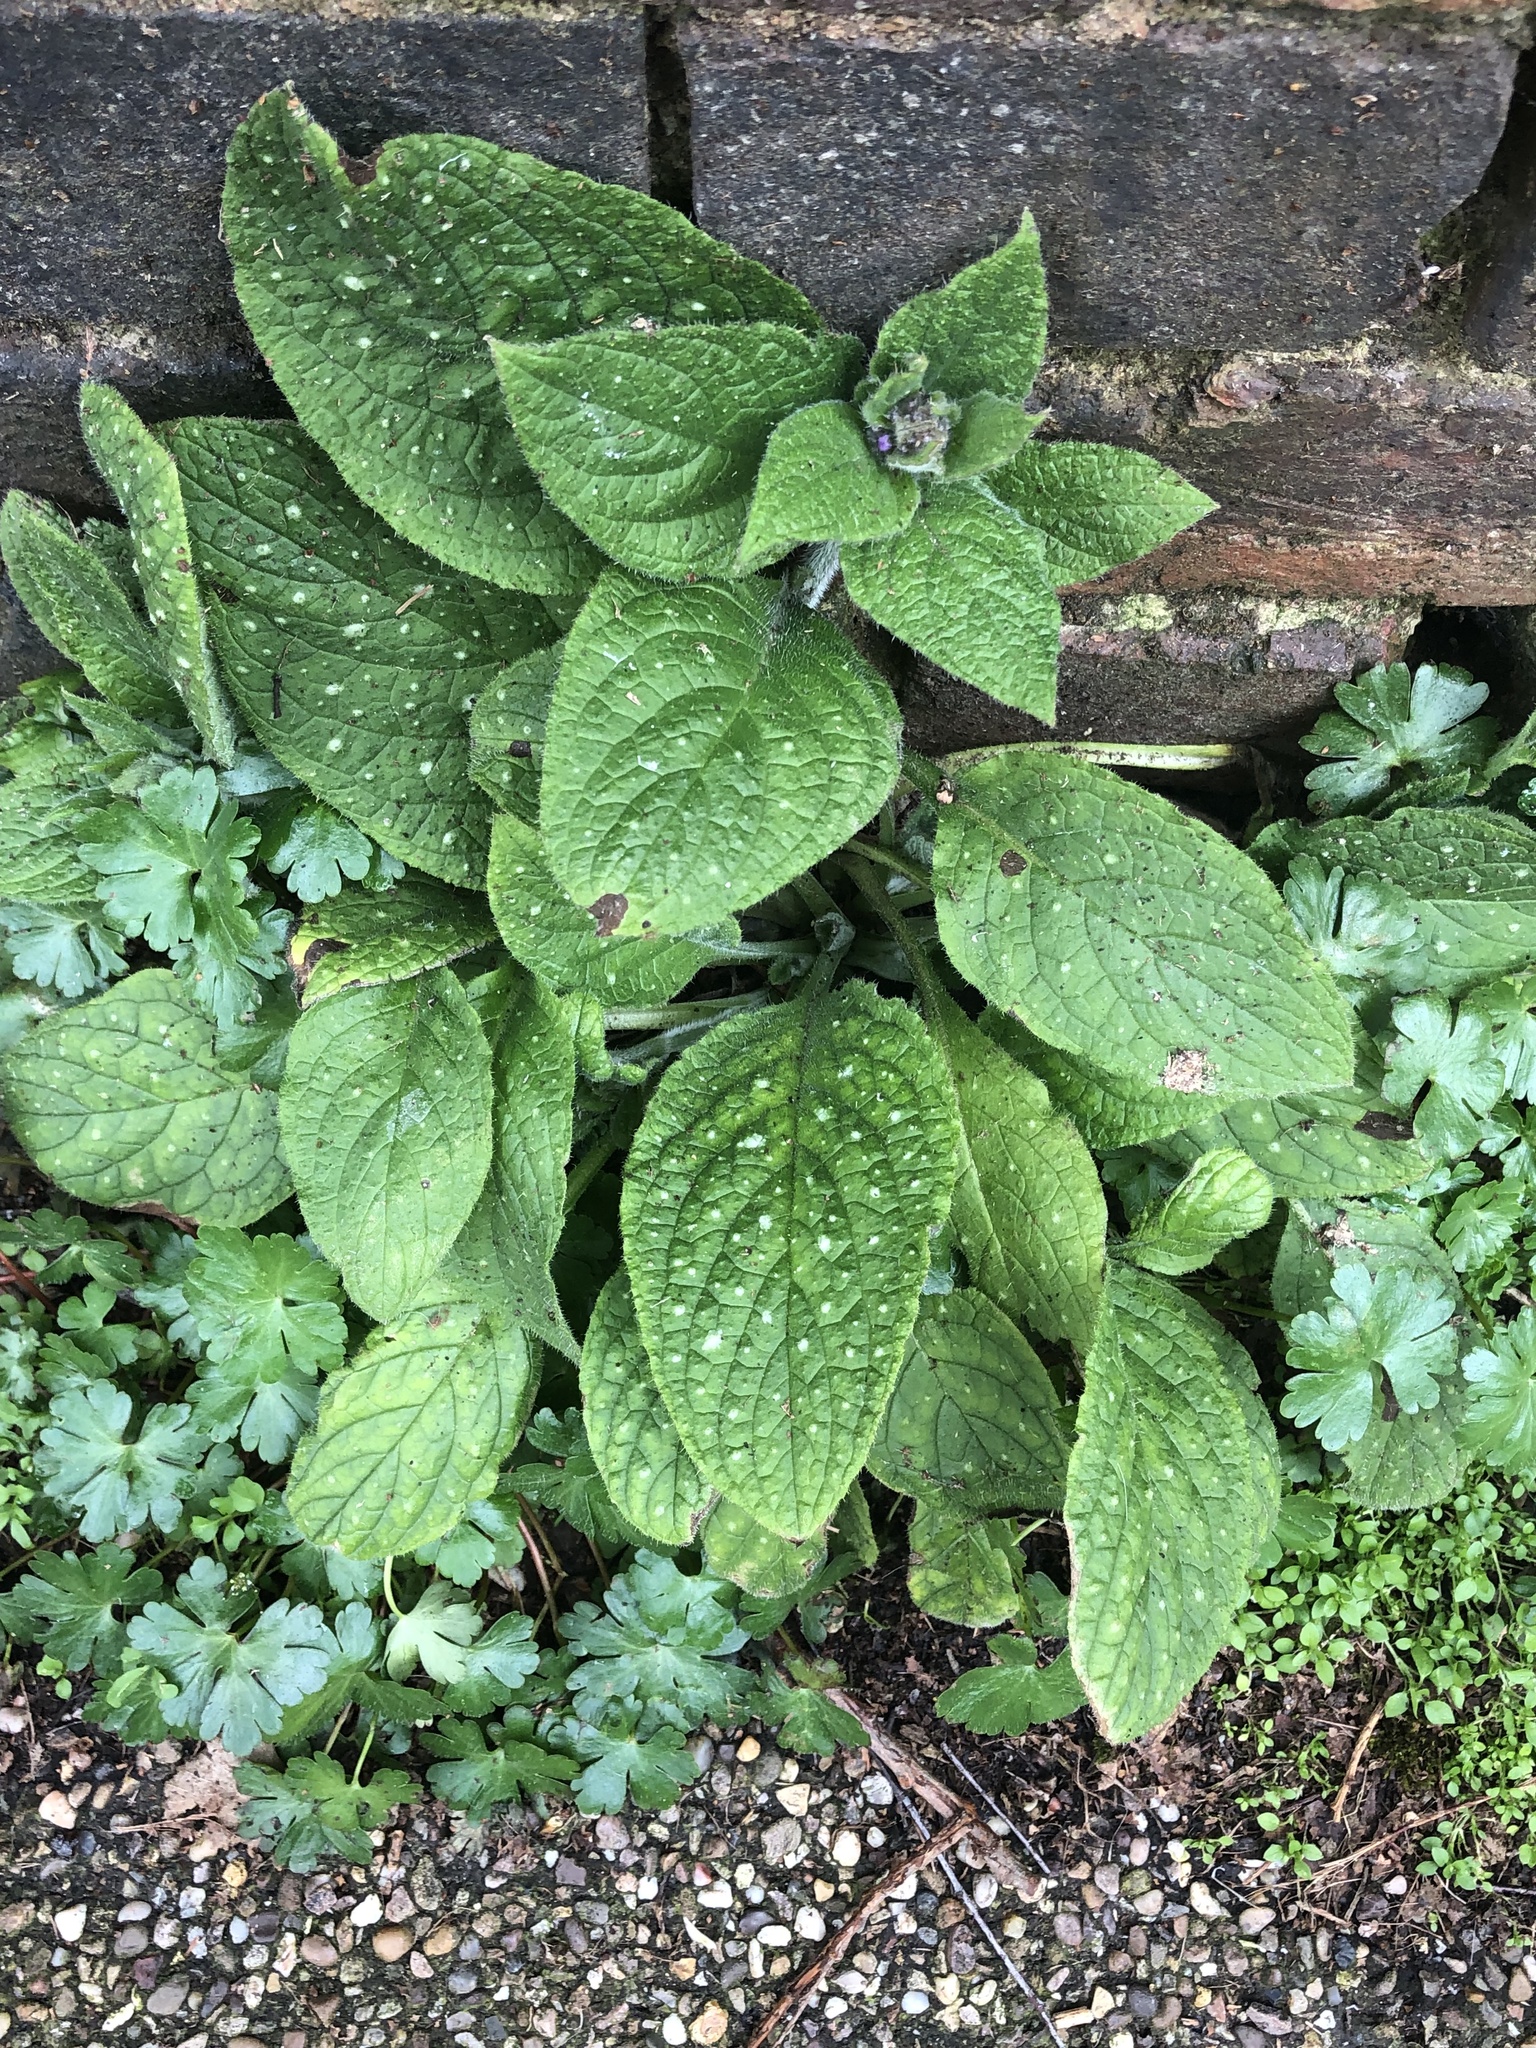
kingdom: Plantae
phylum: Tracheophyta
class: Magnoliopsida
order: Boraginales
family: Boraginaceae
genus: Pentaglottis
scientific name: Pentaglottis sempervirens
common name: Green alkanet
